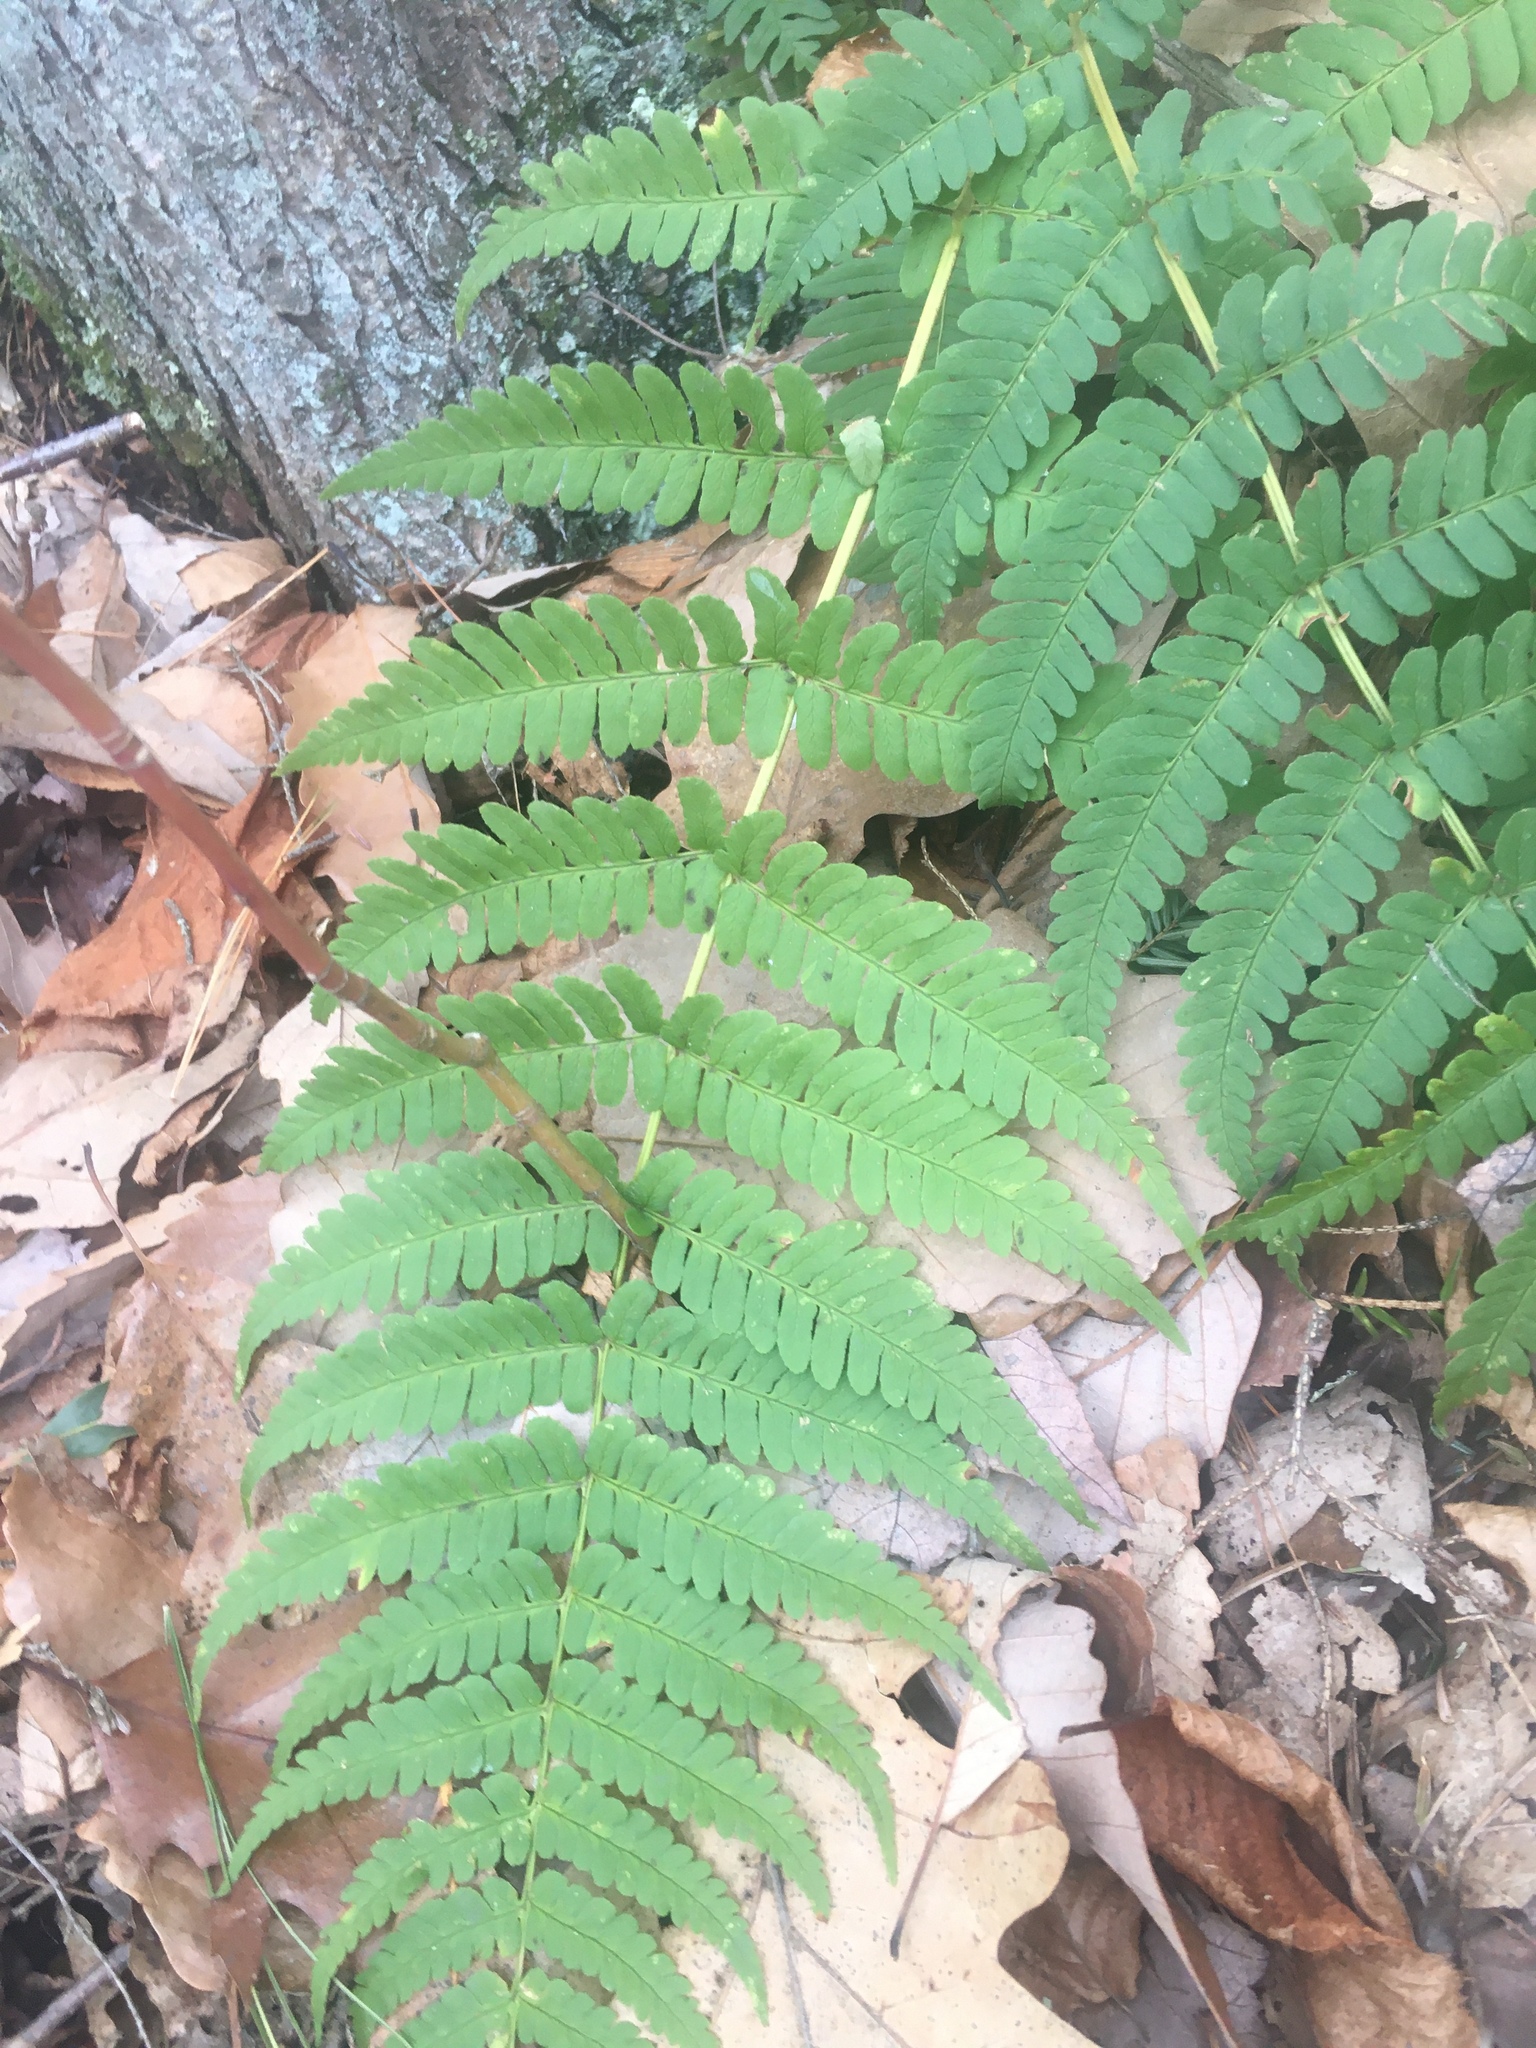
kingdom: Plantae
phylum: Tracheophyta
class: Polypodiopsida
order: Polypodiales
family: Dryopteridaceae
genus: Dryopteris
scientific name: Dryopteris marginalis
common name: Marginal wood fern
